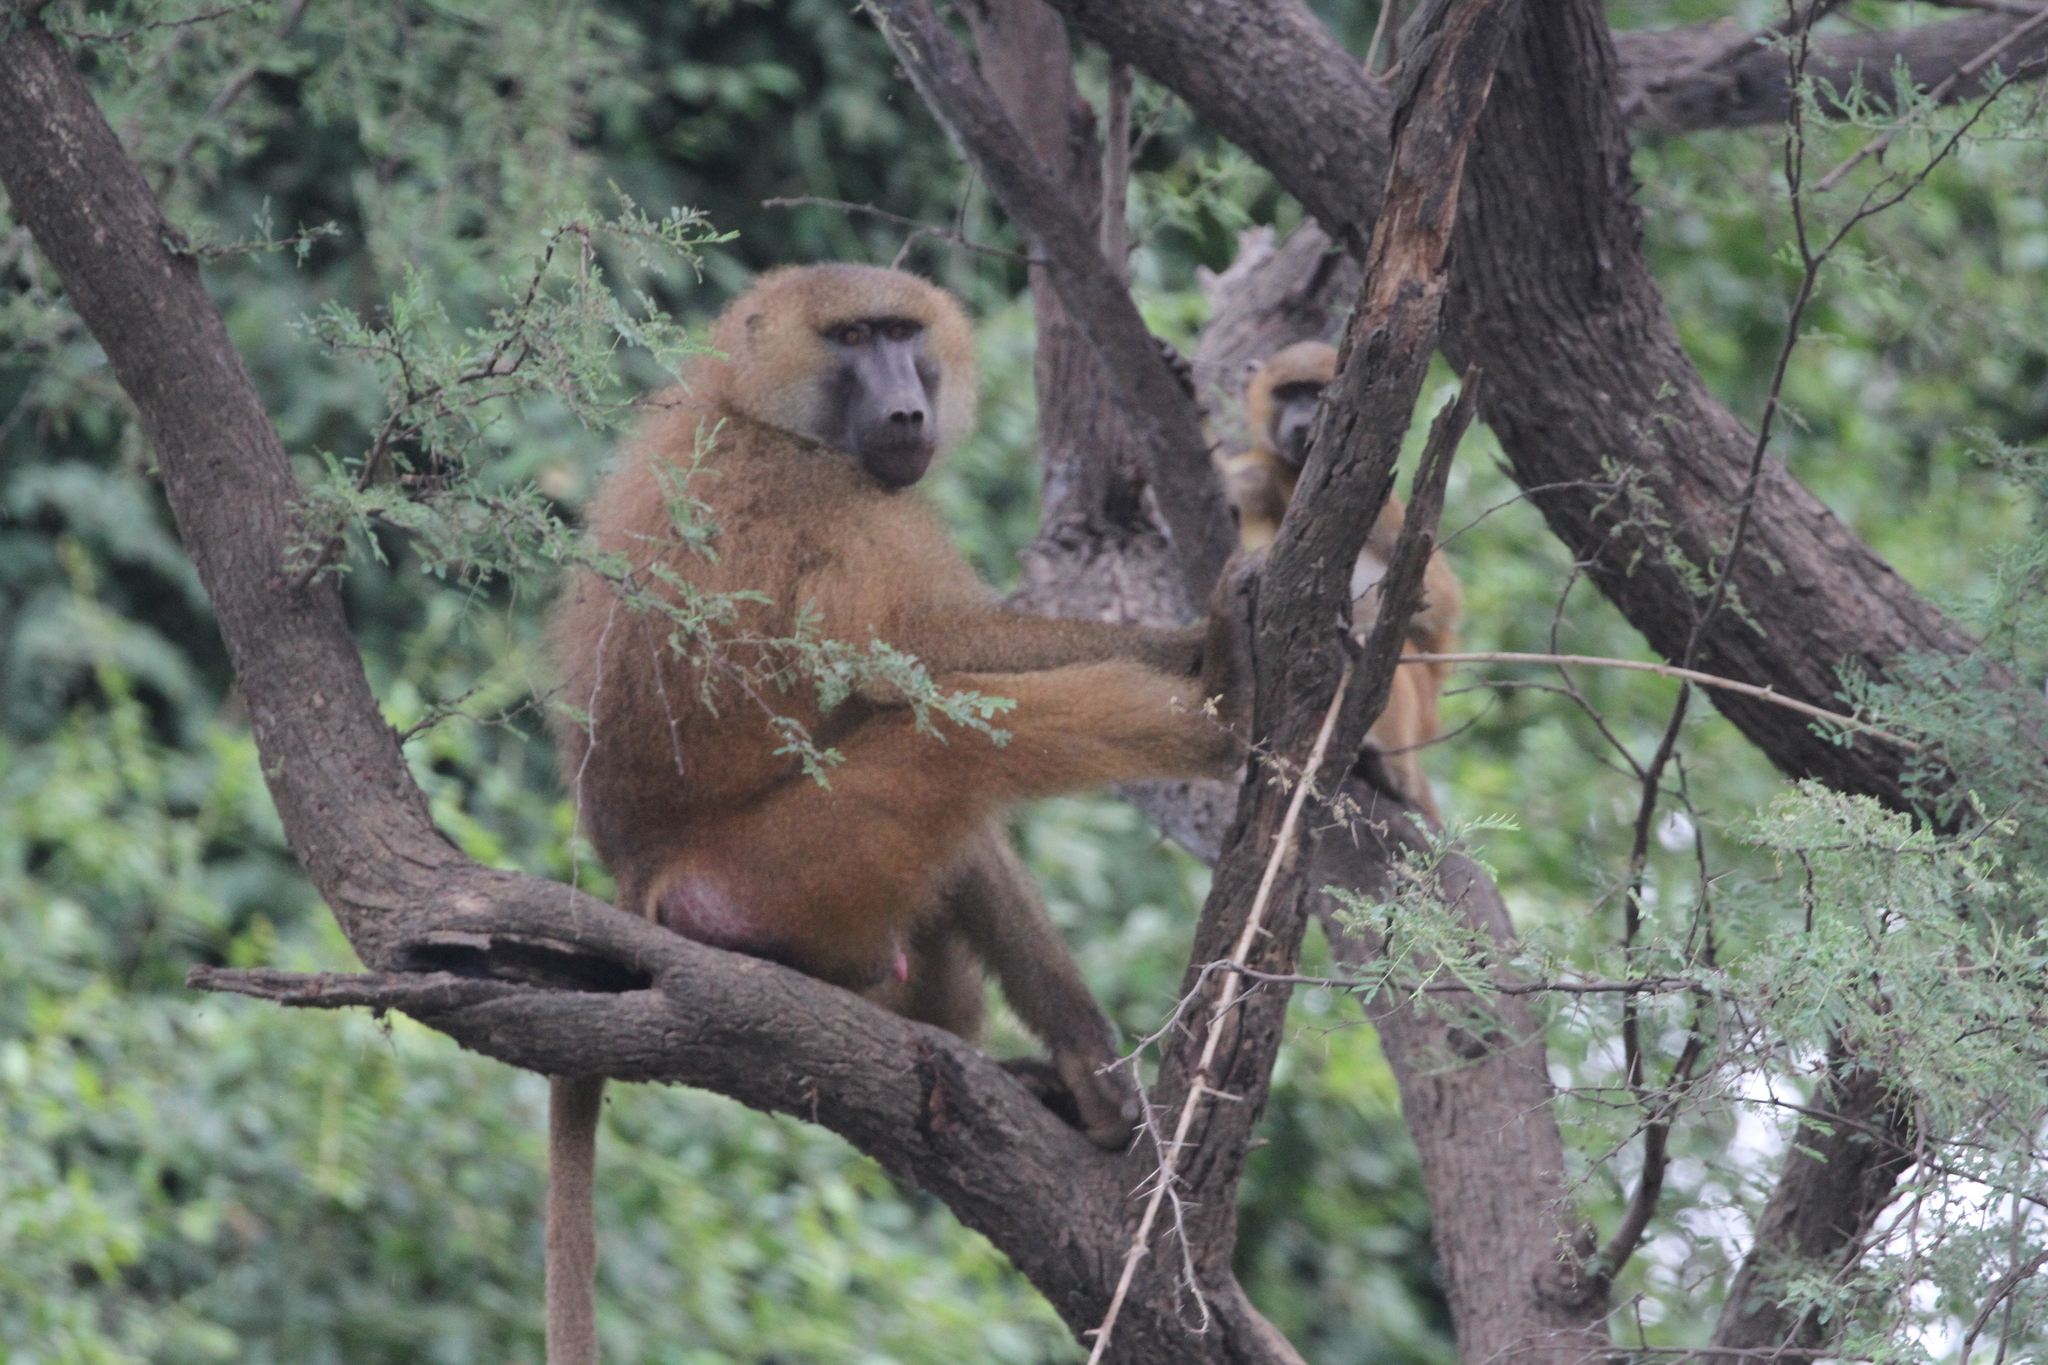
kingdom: Animalia
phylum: Chordata
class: Mammalia
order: Primates
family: Cercopithecidae
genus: Papio
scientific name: Papio papio
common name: Guinea baboon
